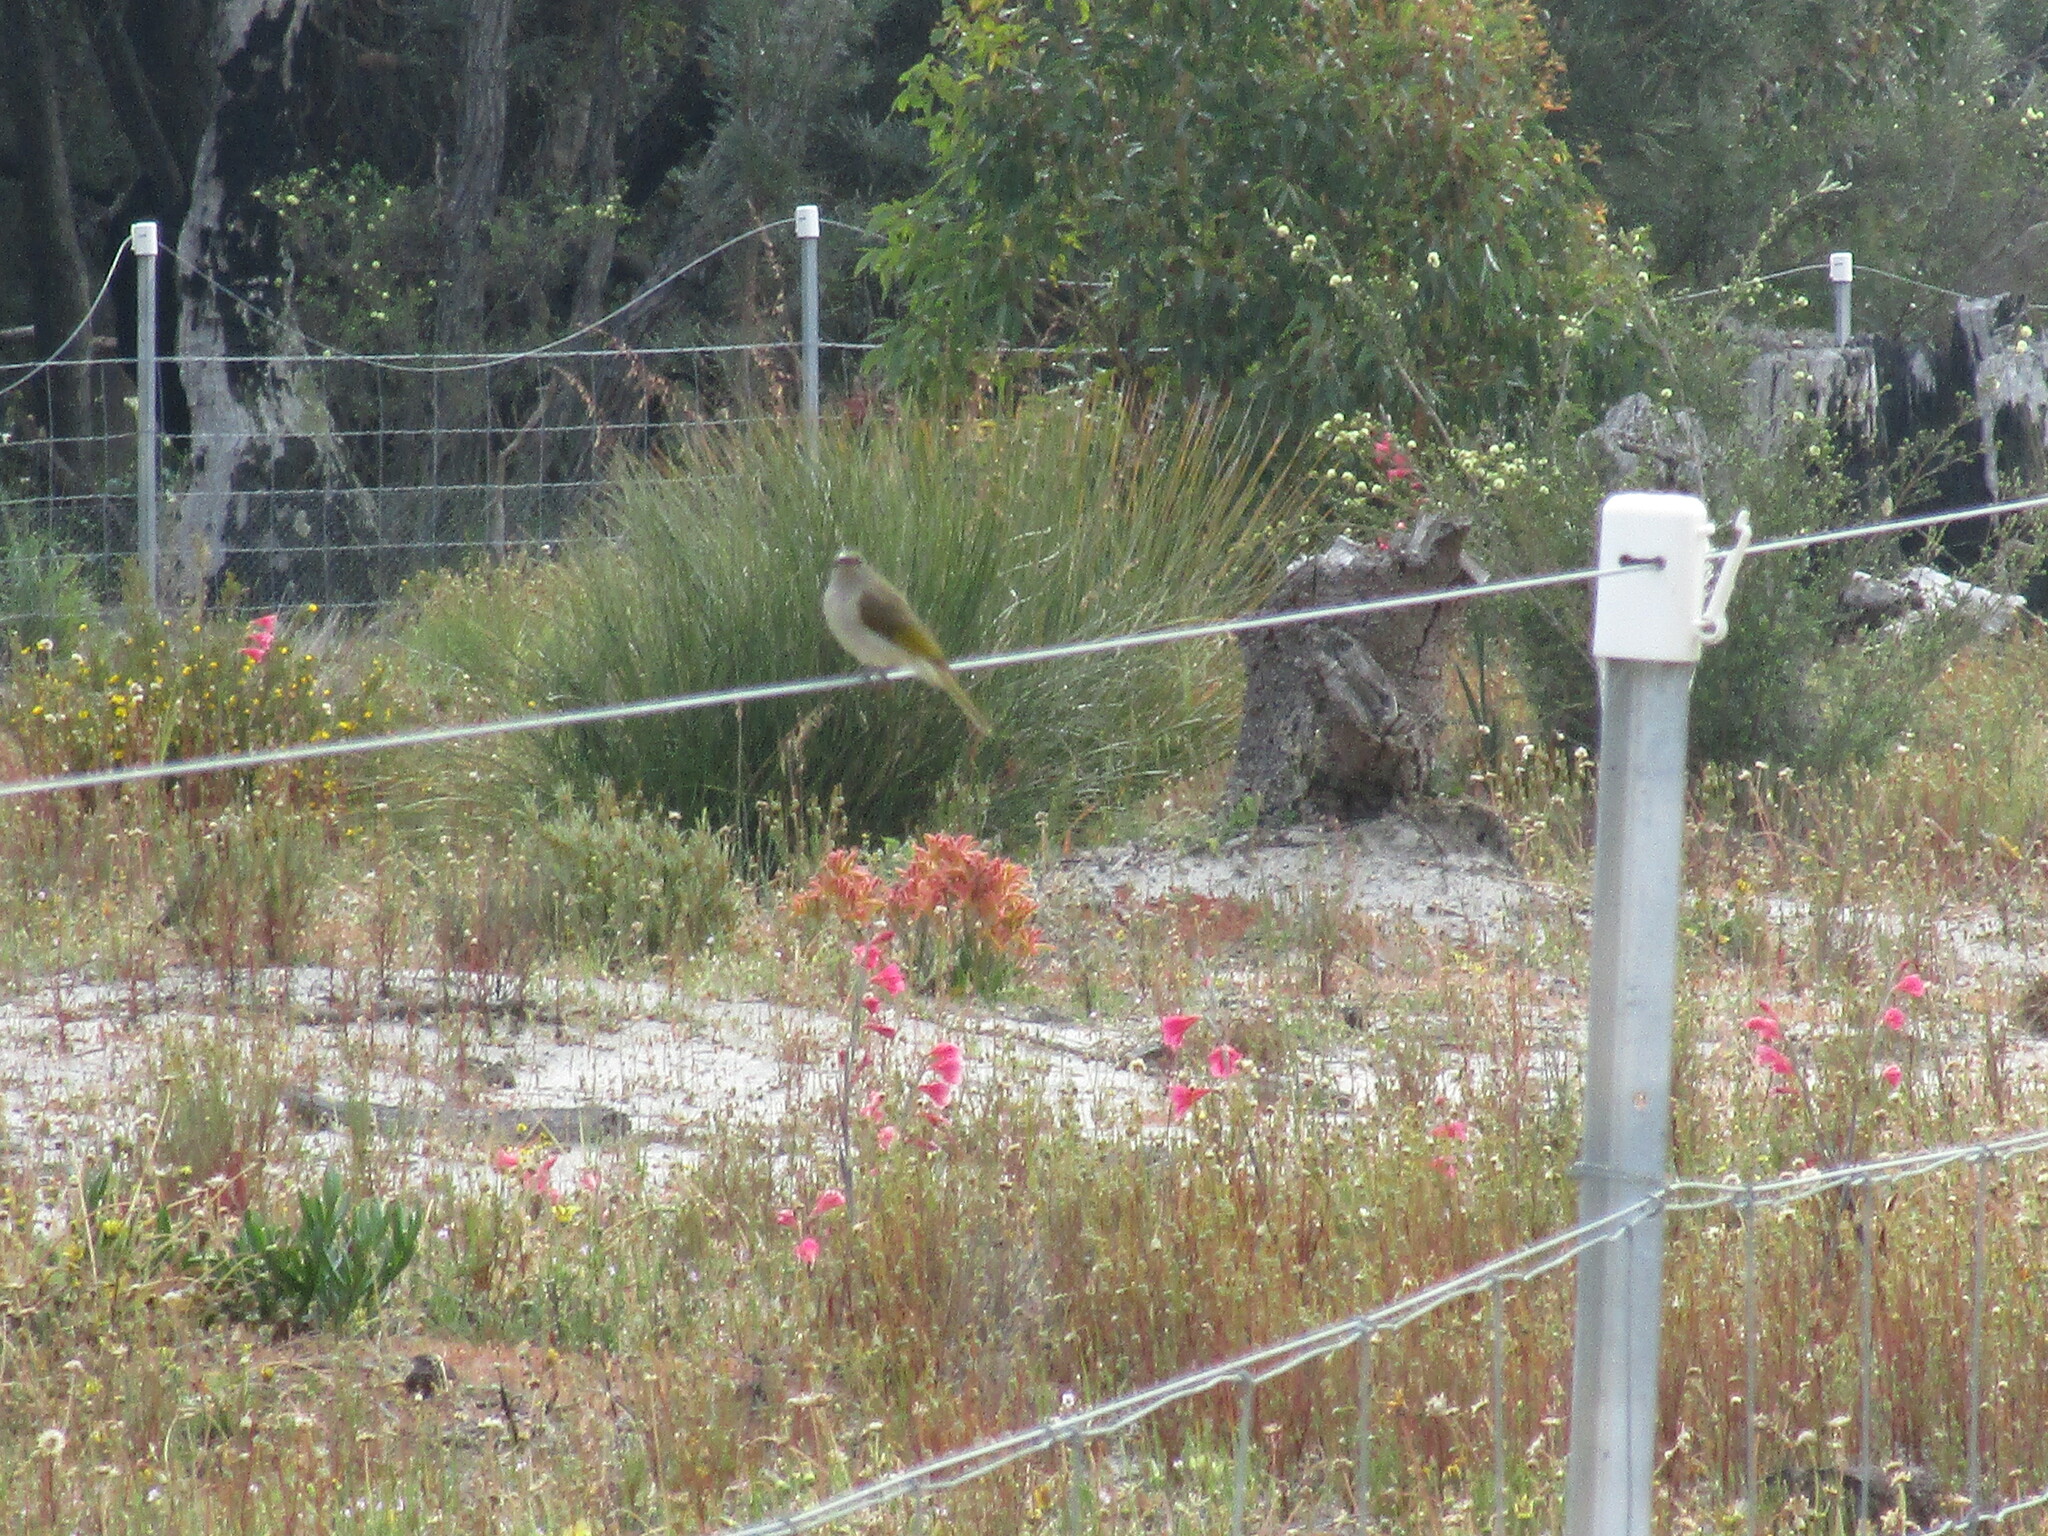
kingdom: Animalia
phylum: Chordata
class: Aves
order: Passeriformes
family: Meliphagidae
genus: Lichmera
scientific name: Lichmera indistincta
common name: Brown honeyeater
